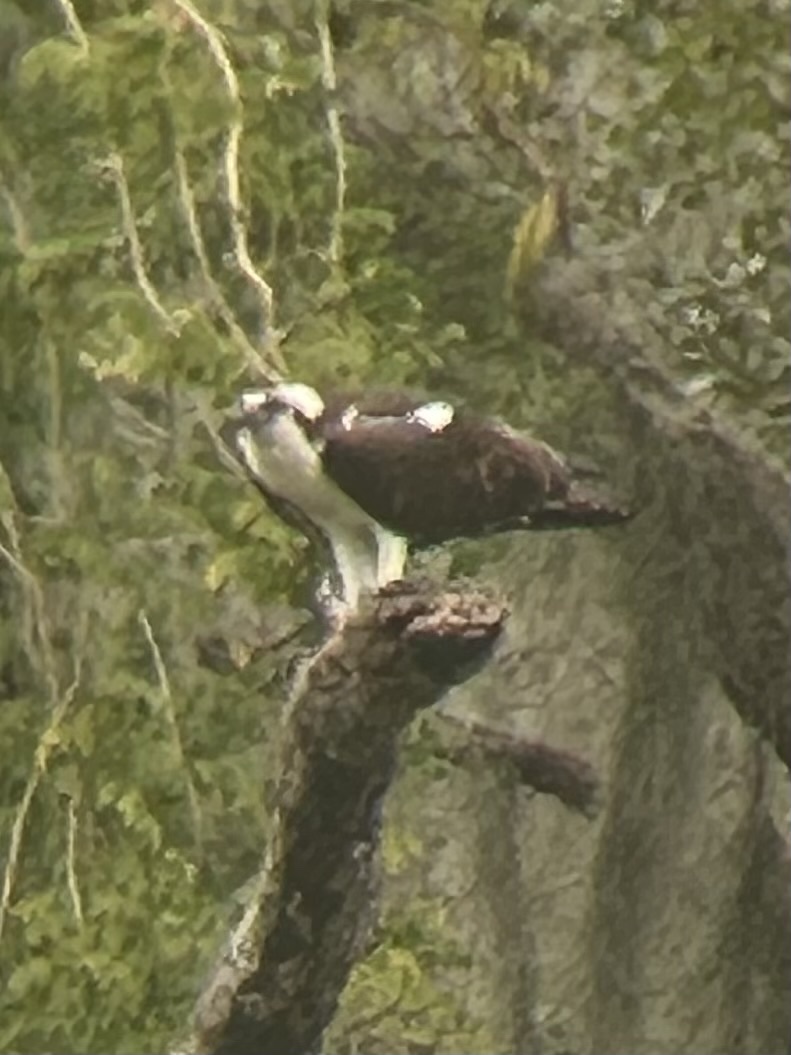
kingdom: Animalia
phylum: Chordata
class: Aves
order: Accipitriformes
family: Pandionidae
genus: Pandion
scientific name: Pandion haliaetus
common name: Osprey
